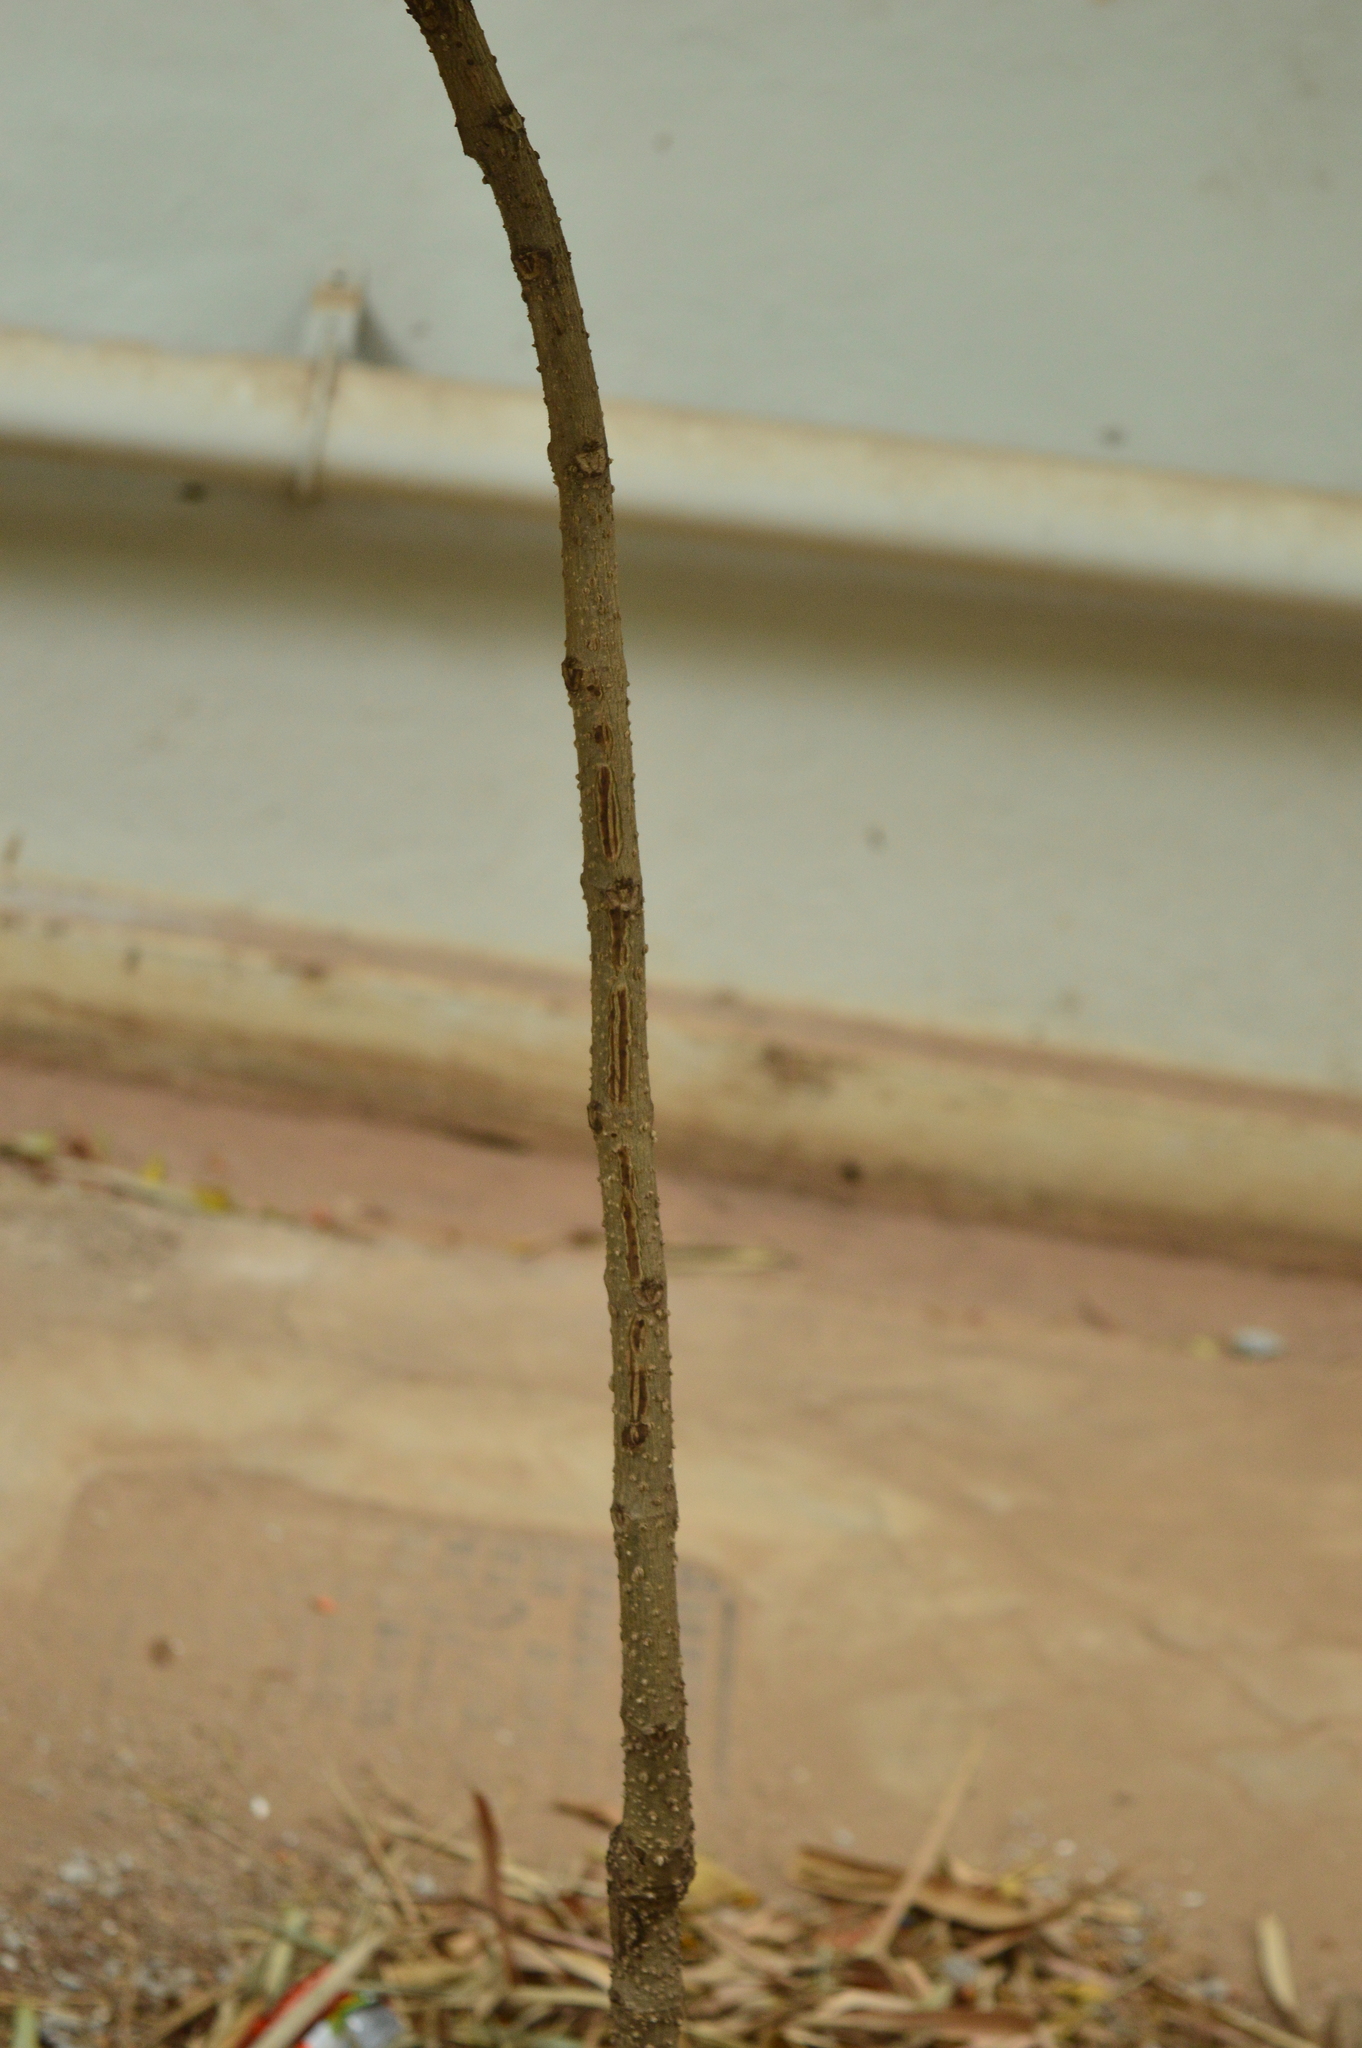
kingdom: Plantae
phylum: Tracheophyta
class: Magnoliopsida
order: Lamiales
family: Bignoniaceae
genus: Spathodea
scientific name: Spathodea campanulata
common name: African tuliptree
